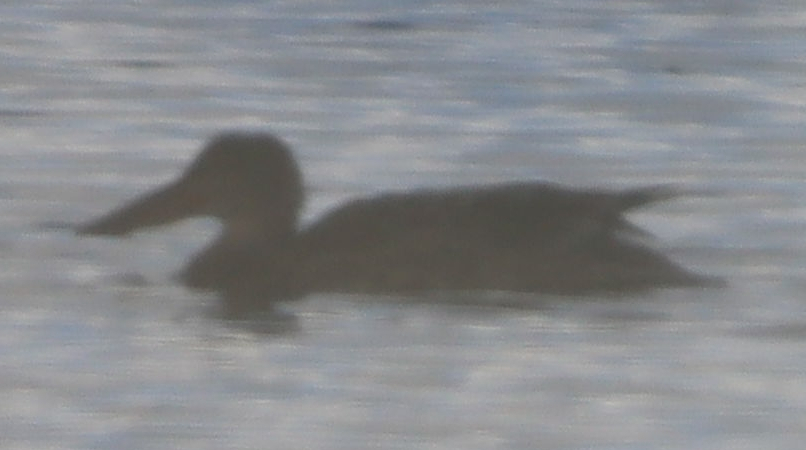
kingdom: Animalia
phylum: Chordata
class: Aves
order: Anseriformes
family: Anatidae
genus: Spatula
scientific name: Spatula clypeata
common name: Northern shoveler
